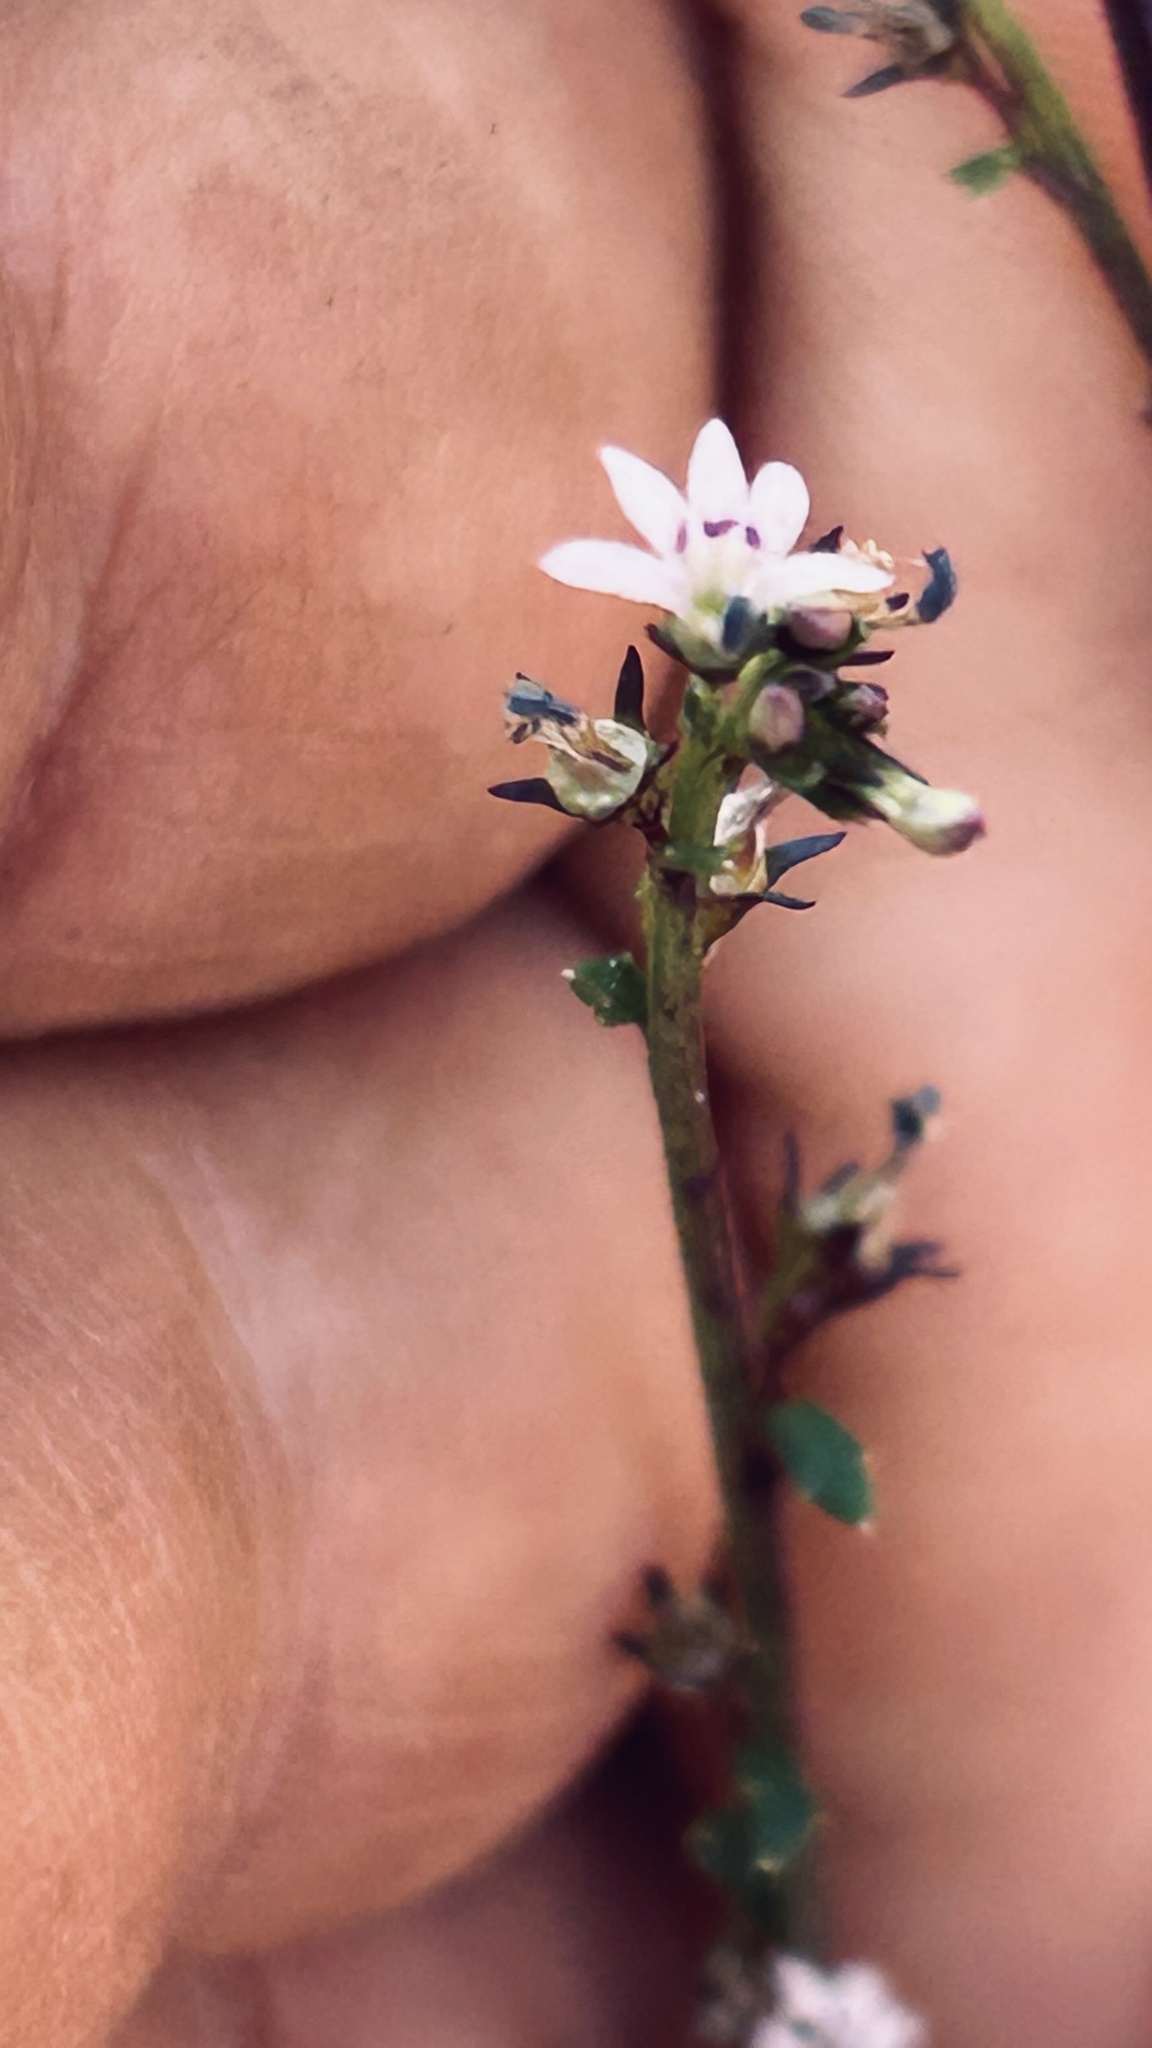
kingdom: Plantae
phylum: Tracheophyta
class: Magnoliopsida
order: Asterales
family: Campanulaceae
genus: Lobelia
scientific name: Lobelia jasionoides
